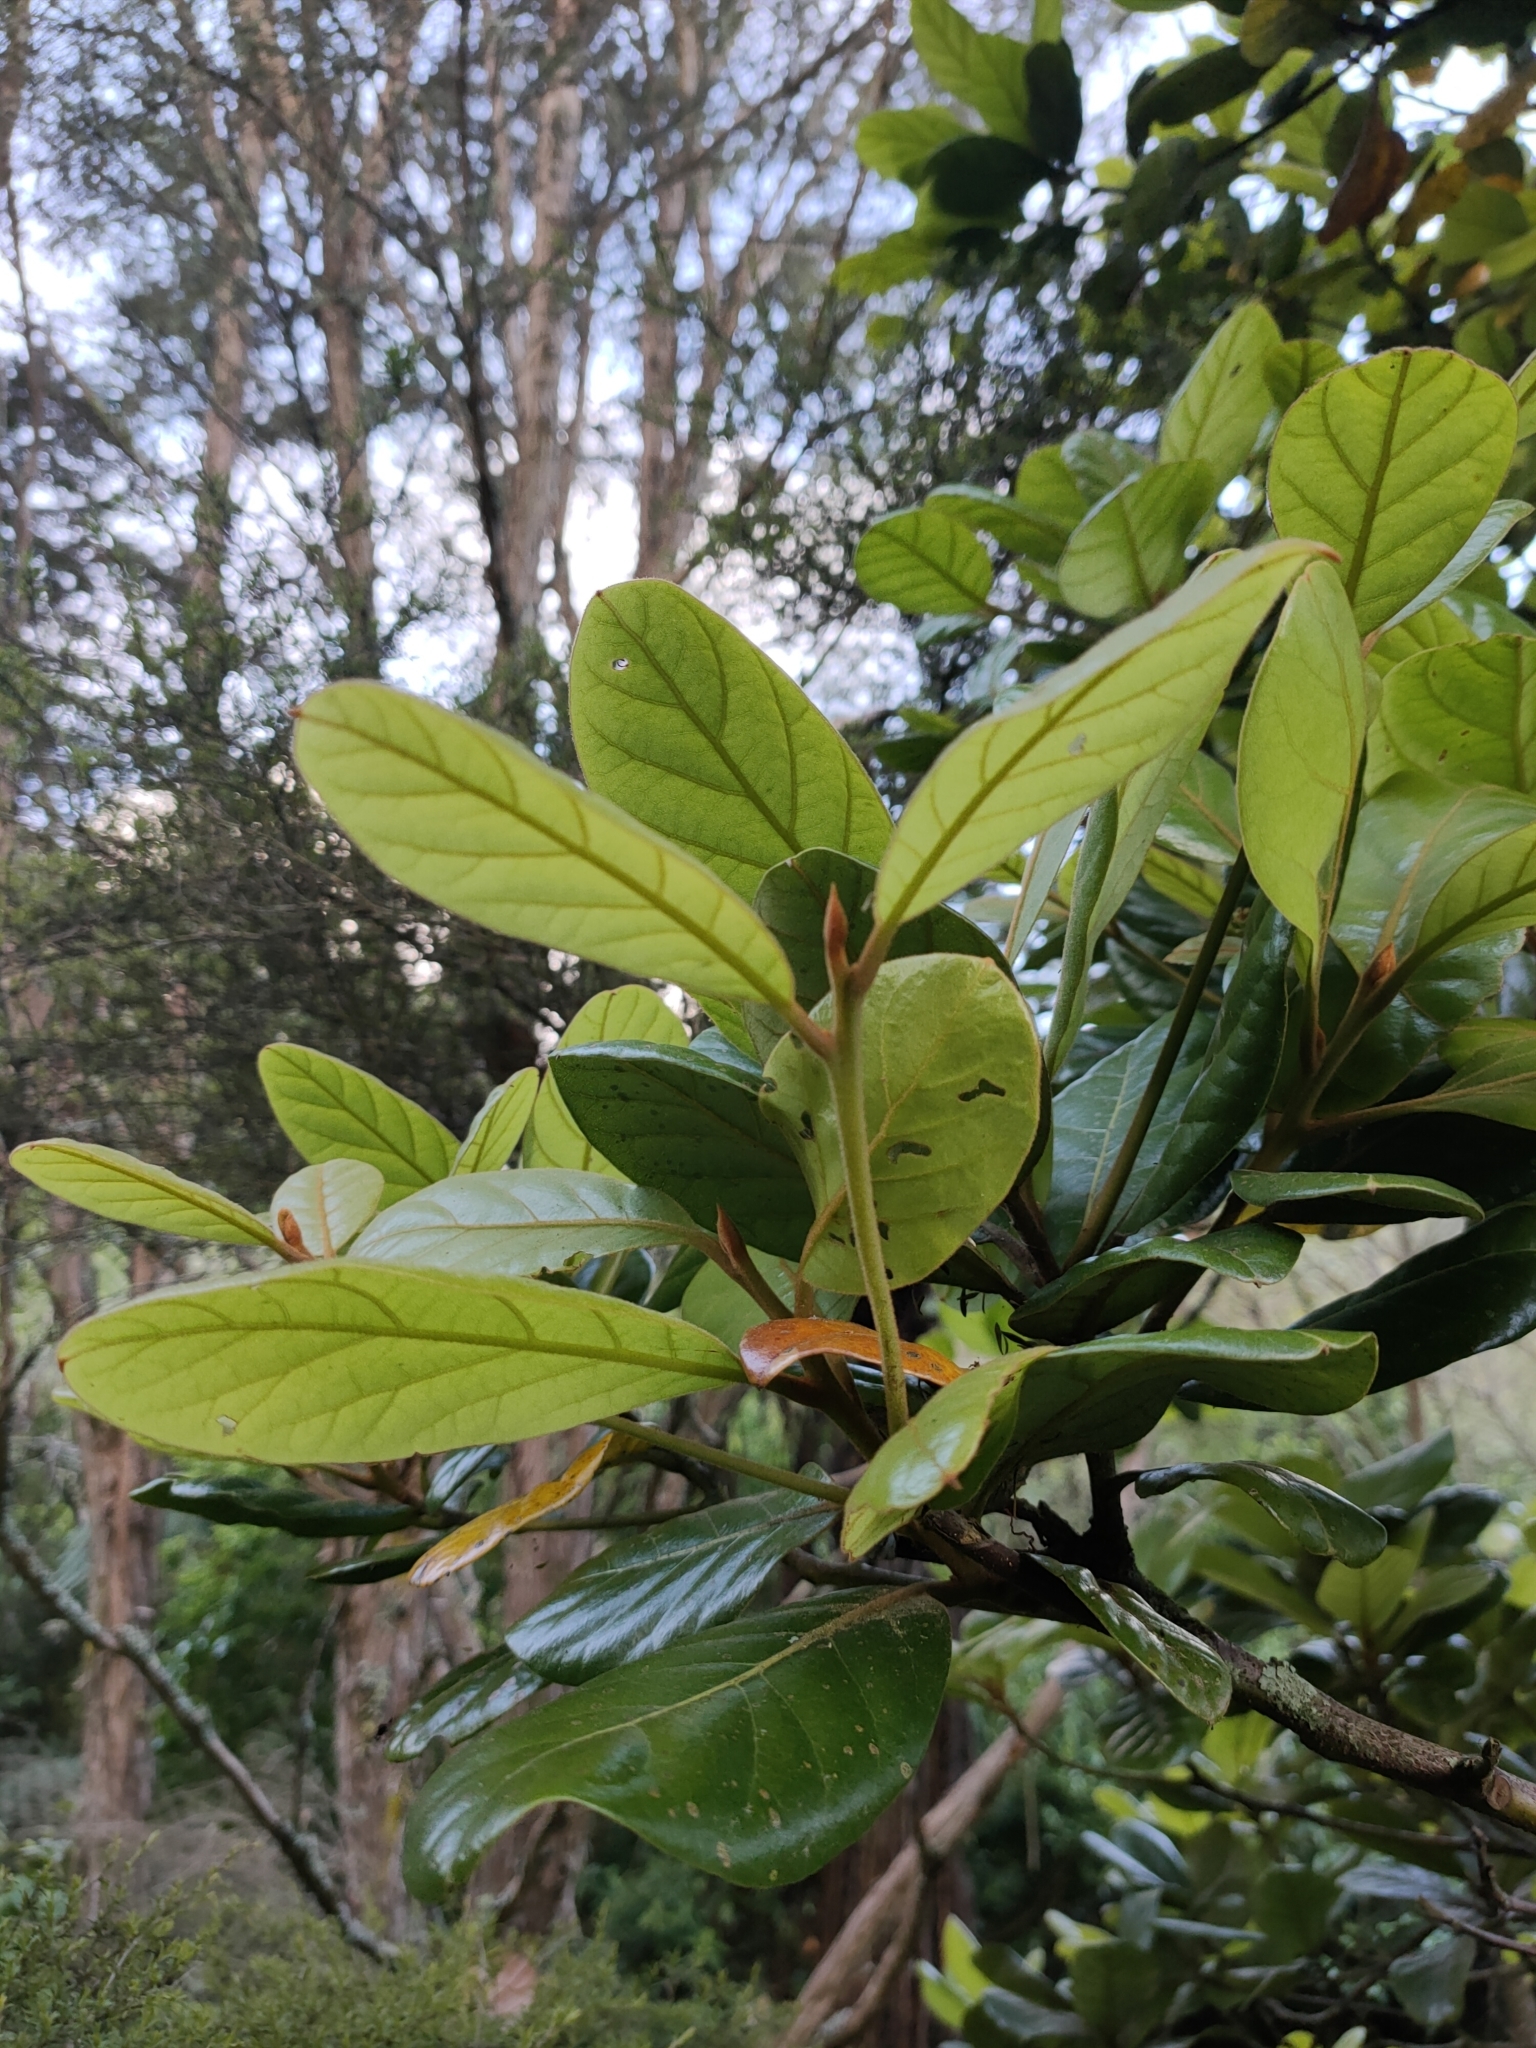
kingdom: Plantae
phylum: Tracheophyta
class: Magnoliopsida
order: Laurales
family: Lauraceae
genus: Beilschmiedia
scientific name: Beilschmiedia tarairi
